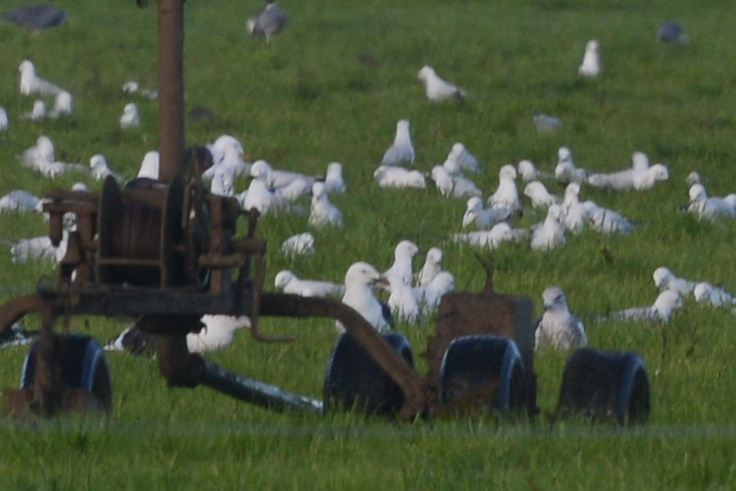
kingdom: Animalia
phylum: Chordata
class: Aves
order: Charadriiformes
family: Laridae
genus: Chroicocephalus
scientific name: Chroicocephalus novaehollandiae
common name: Silver gull
